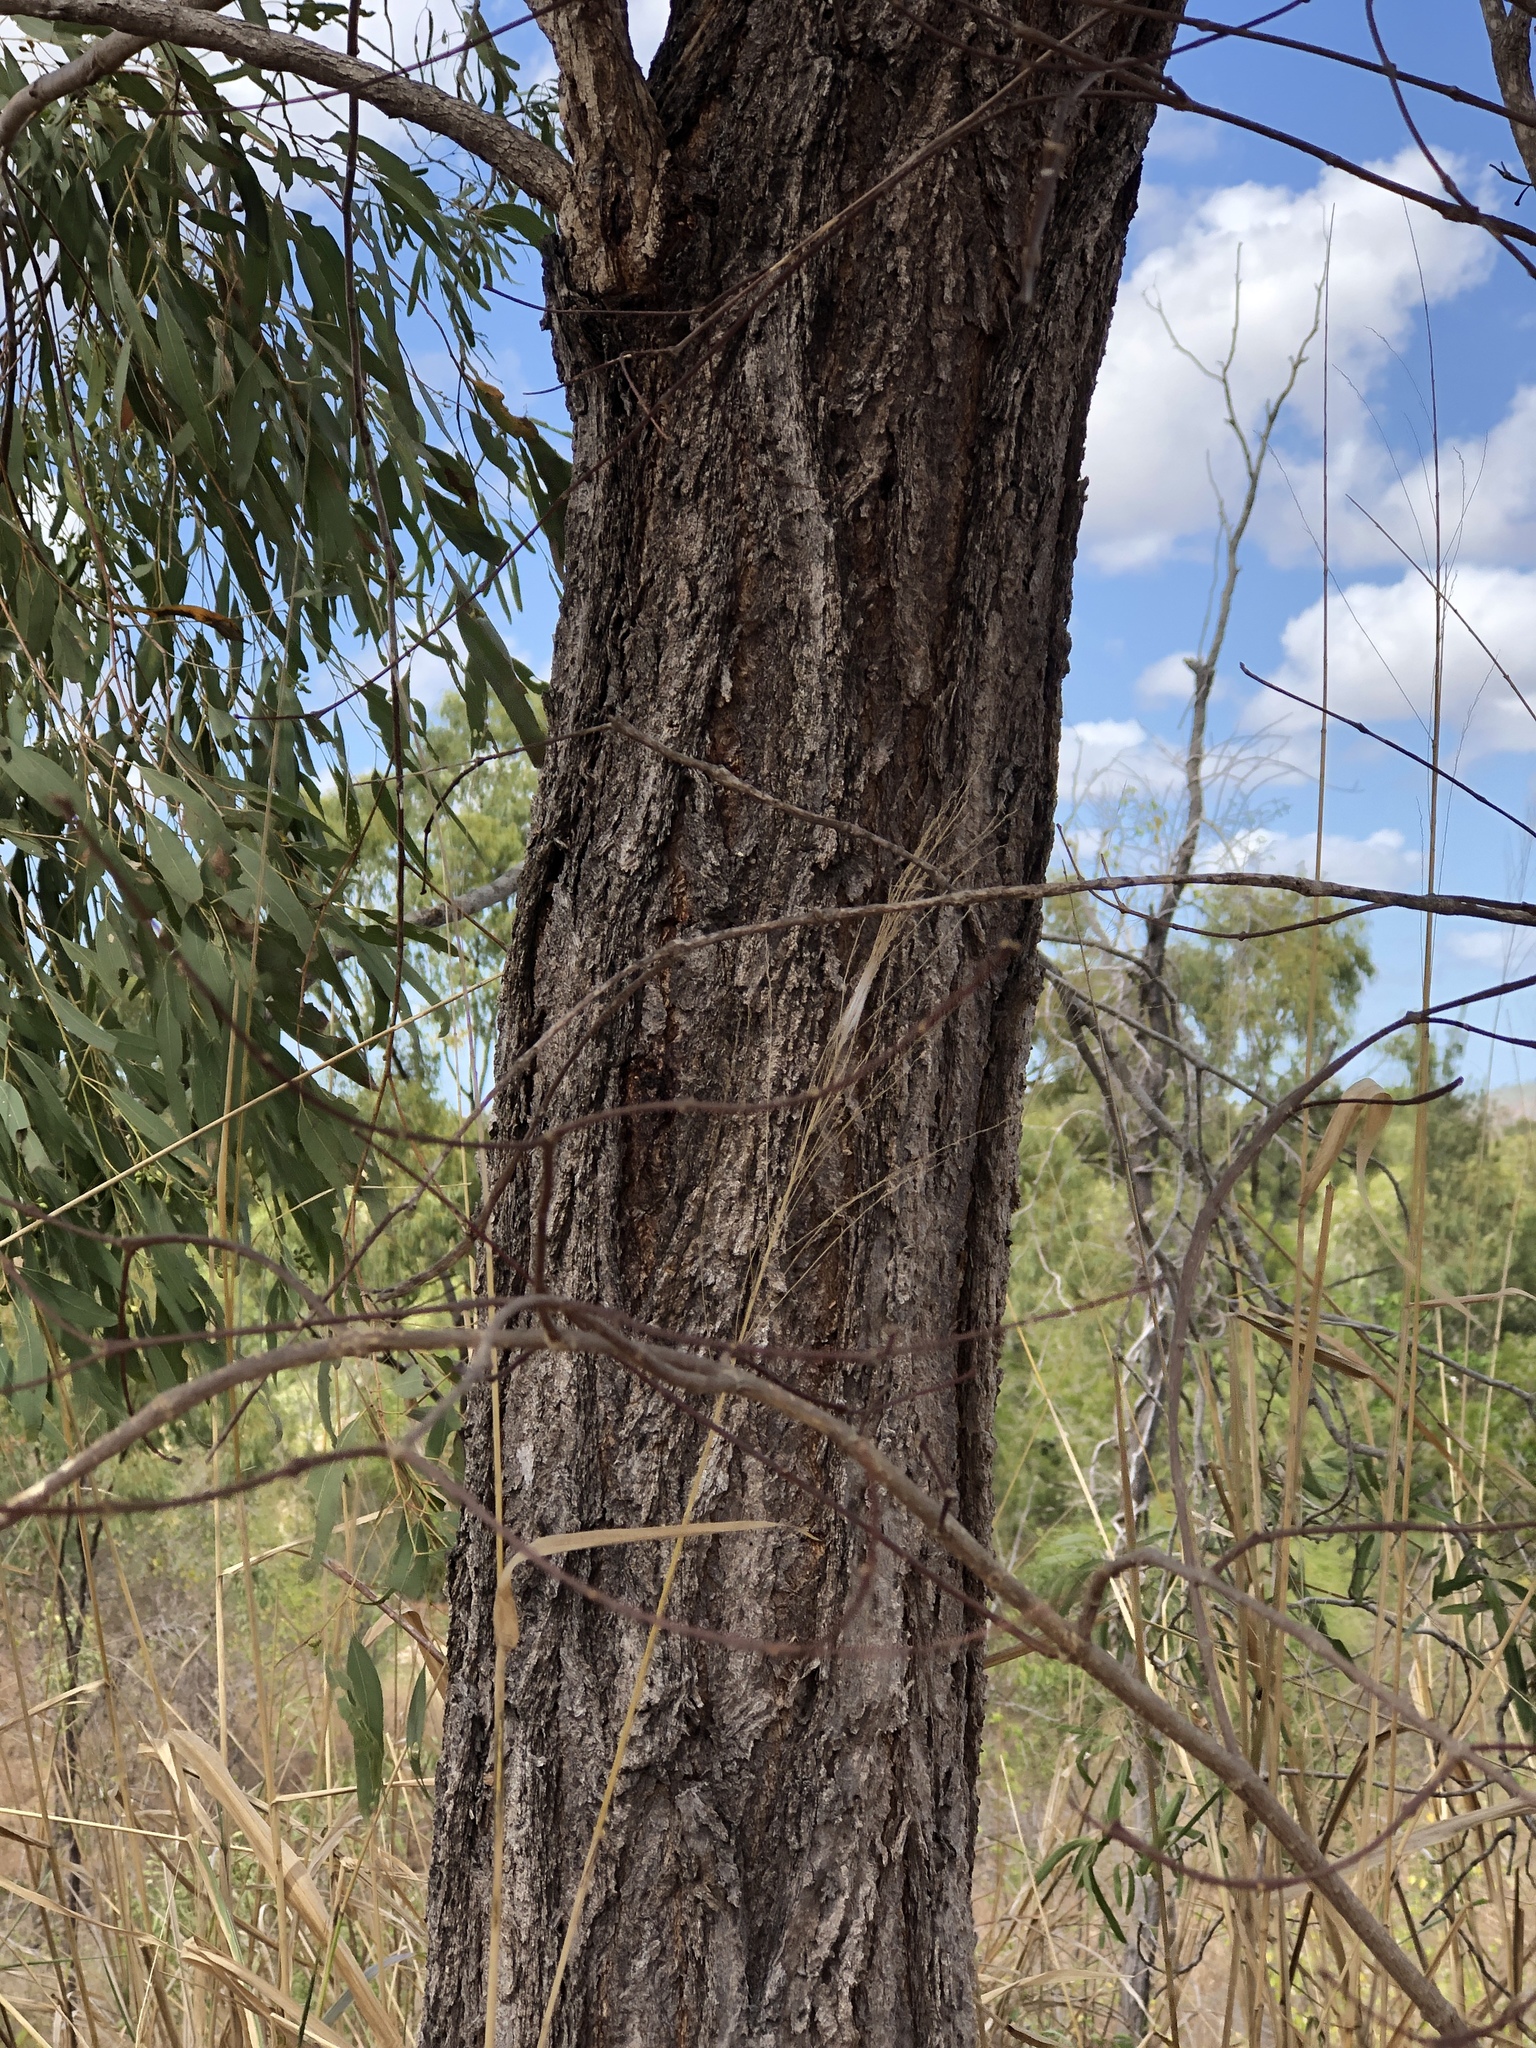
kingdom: Plantae
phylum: Tracheophyta
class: Magnoliopsida
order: Myrtales
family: Myrtaceae
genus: Eucalyptus
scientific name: Eucalyptus crebra
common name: Narrowleaf red ironbark
